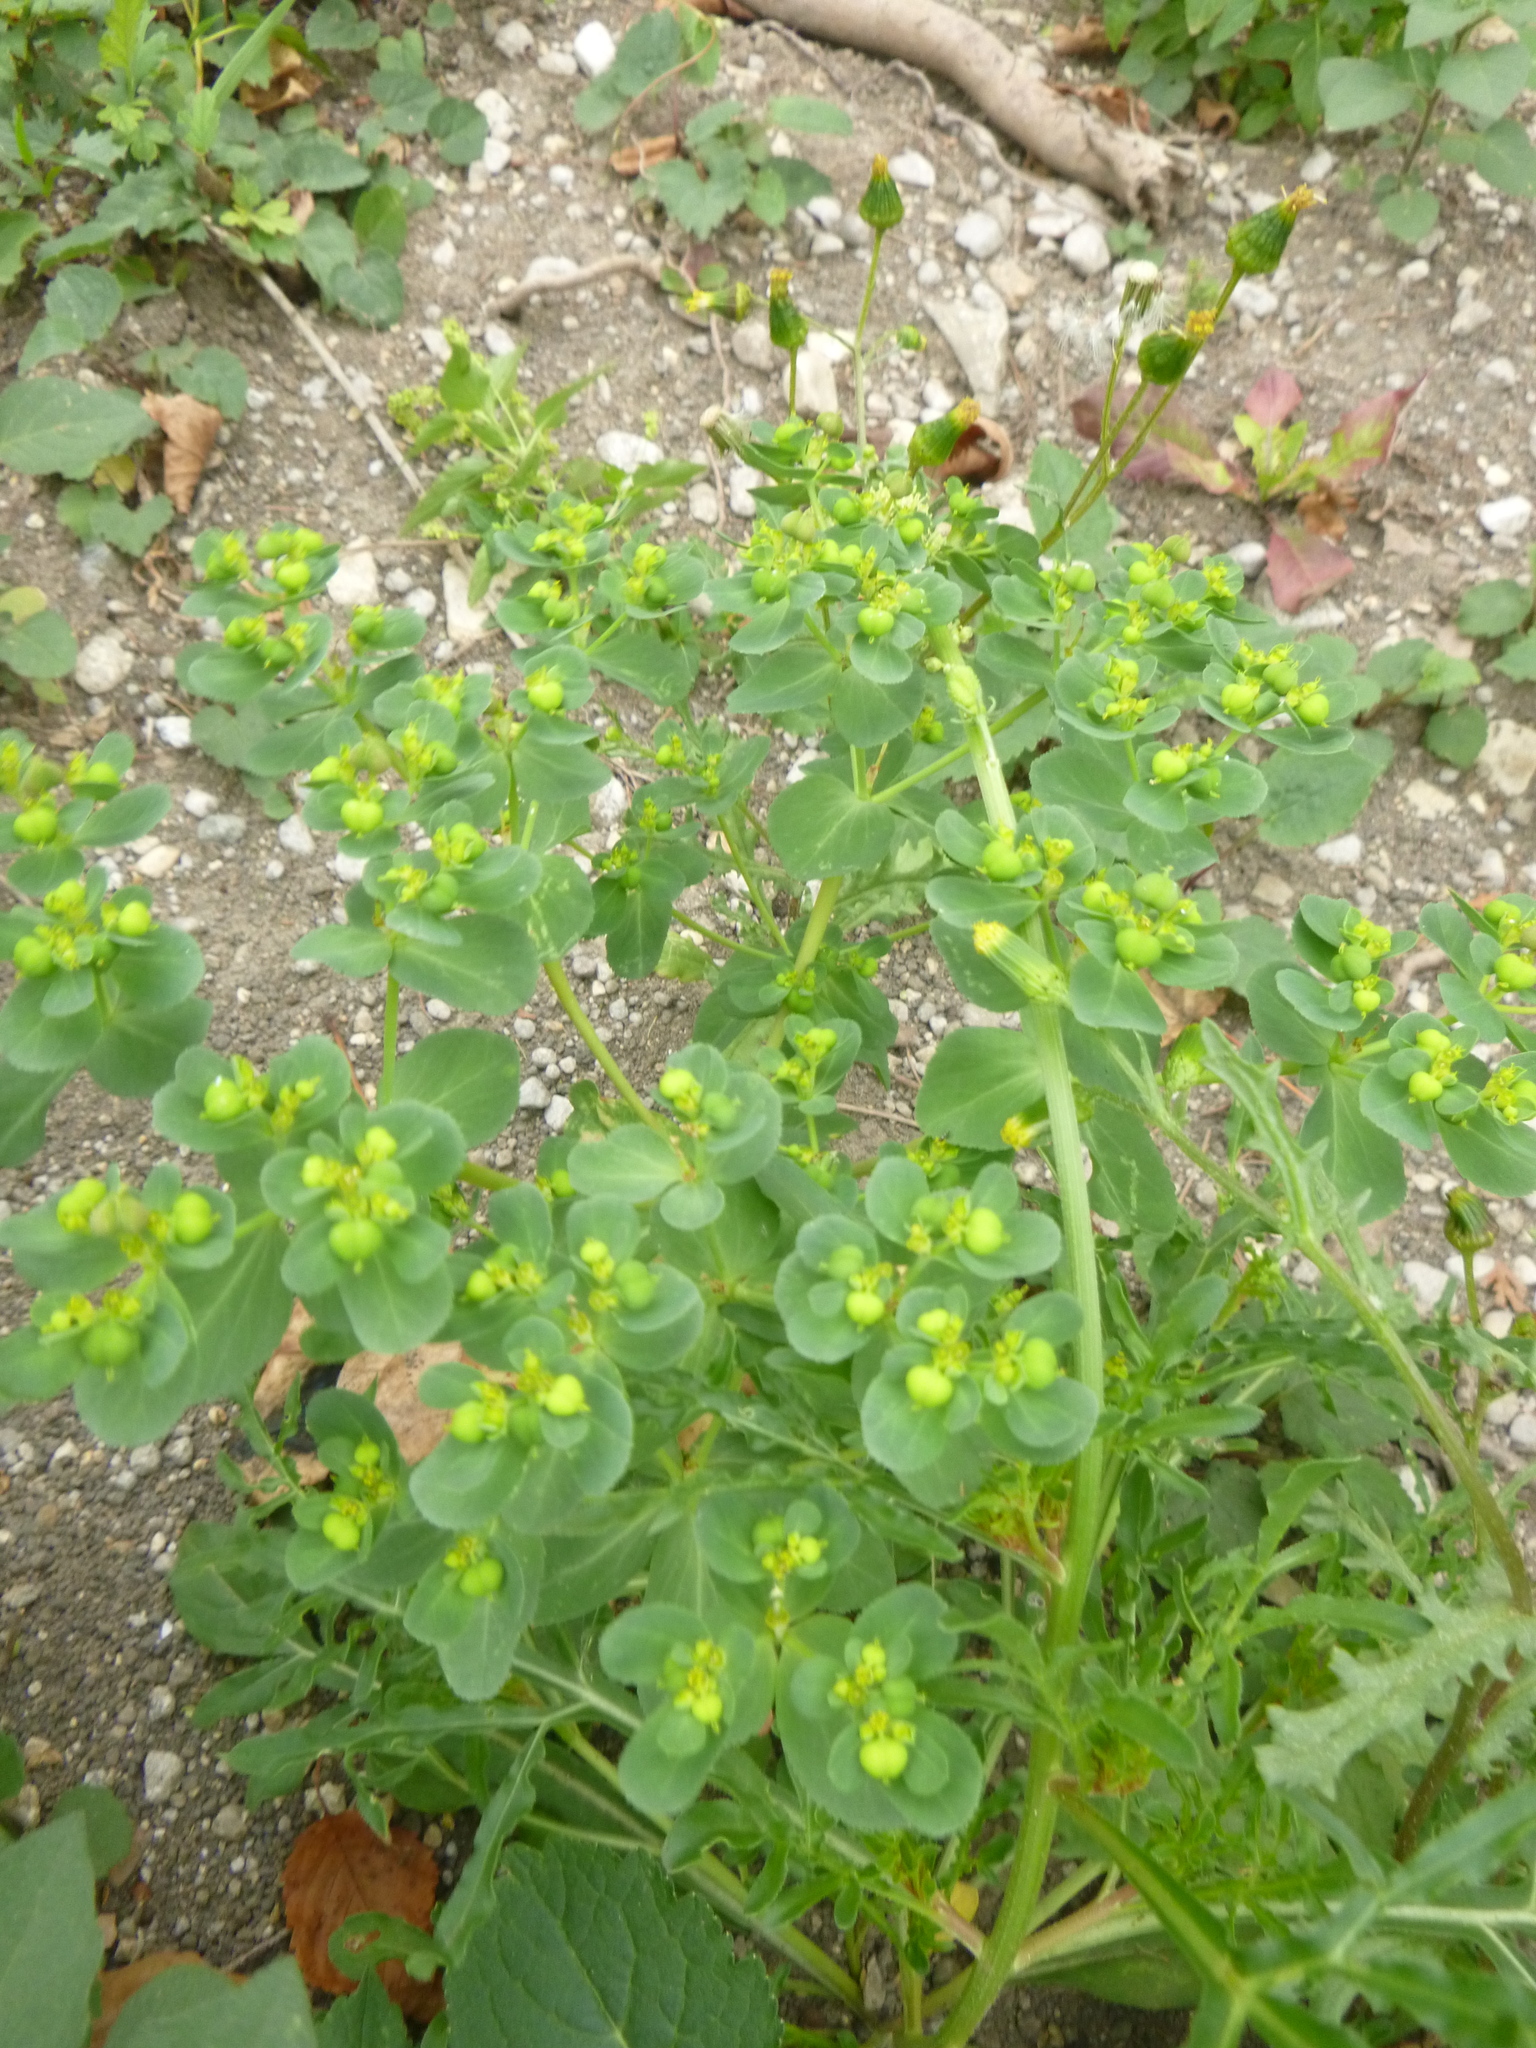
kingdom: Plantae
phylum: Tracheophyta
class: Magnoliopsida
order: Malpighiales
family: Euphorbiaceae
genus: Euphorbia
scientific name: Euphorbia helioscopia
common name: Sun spurge
